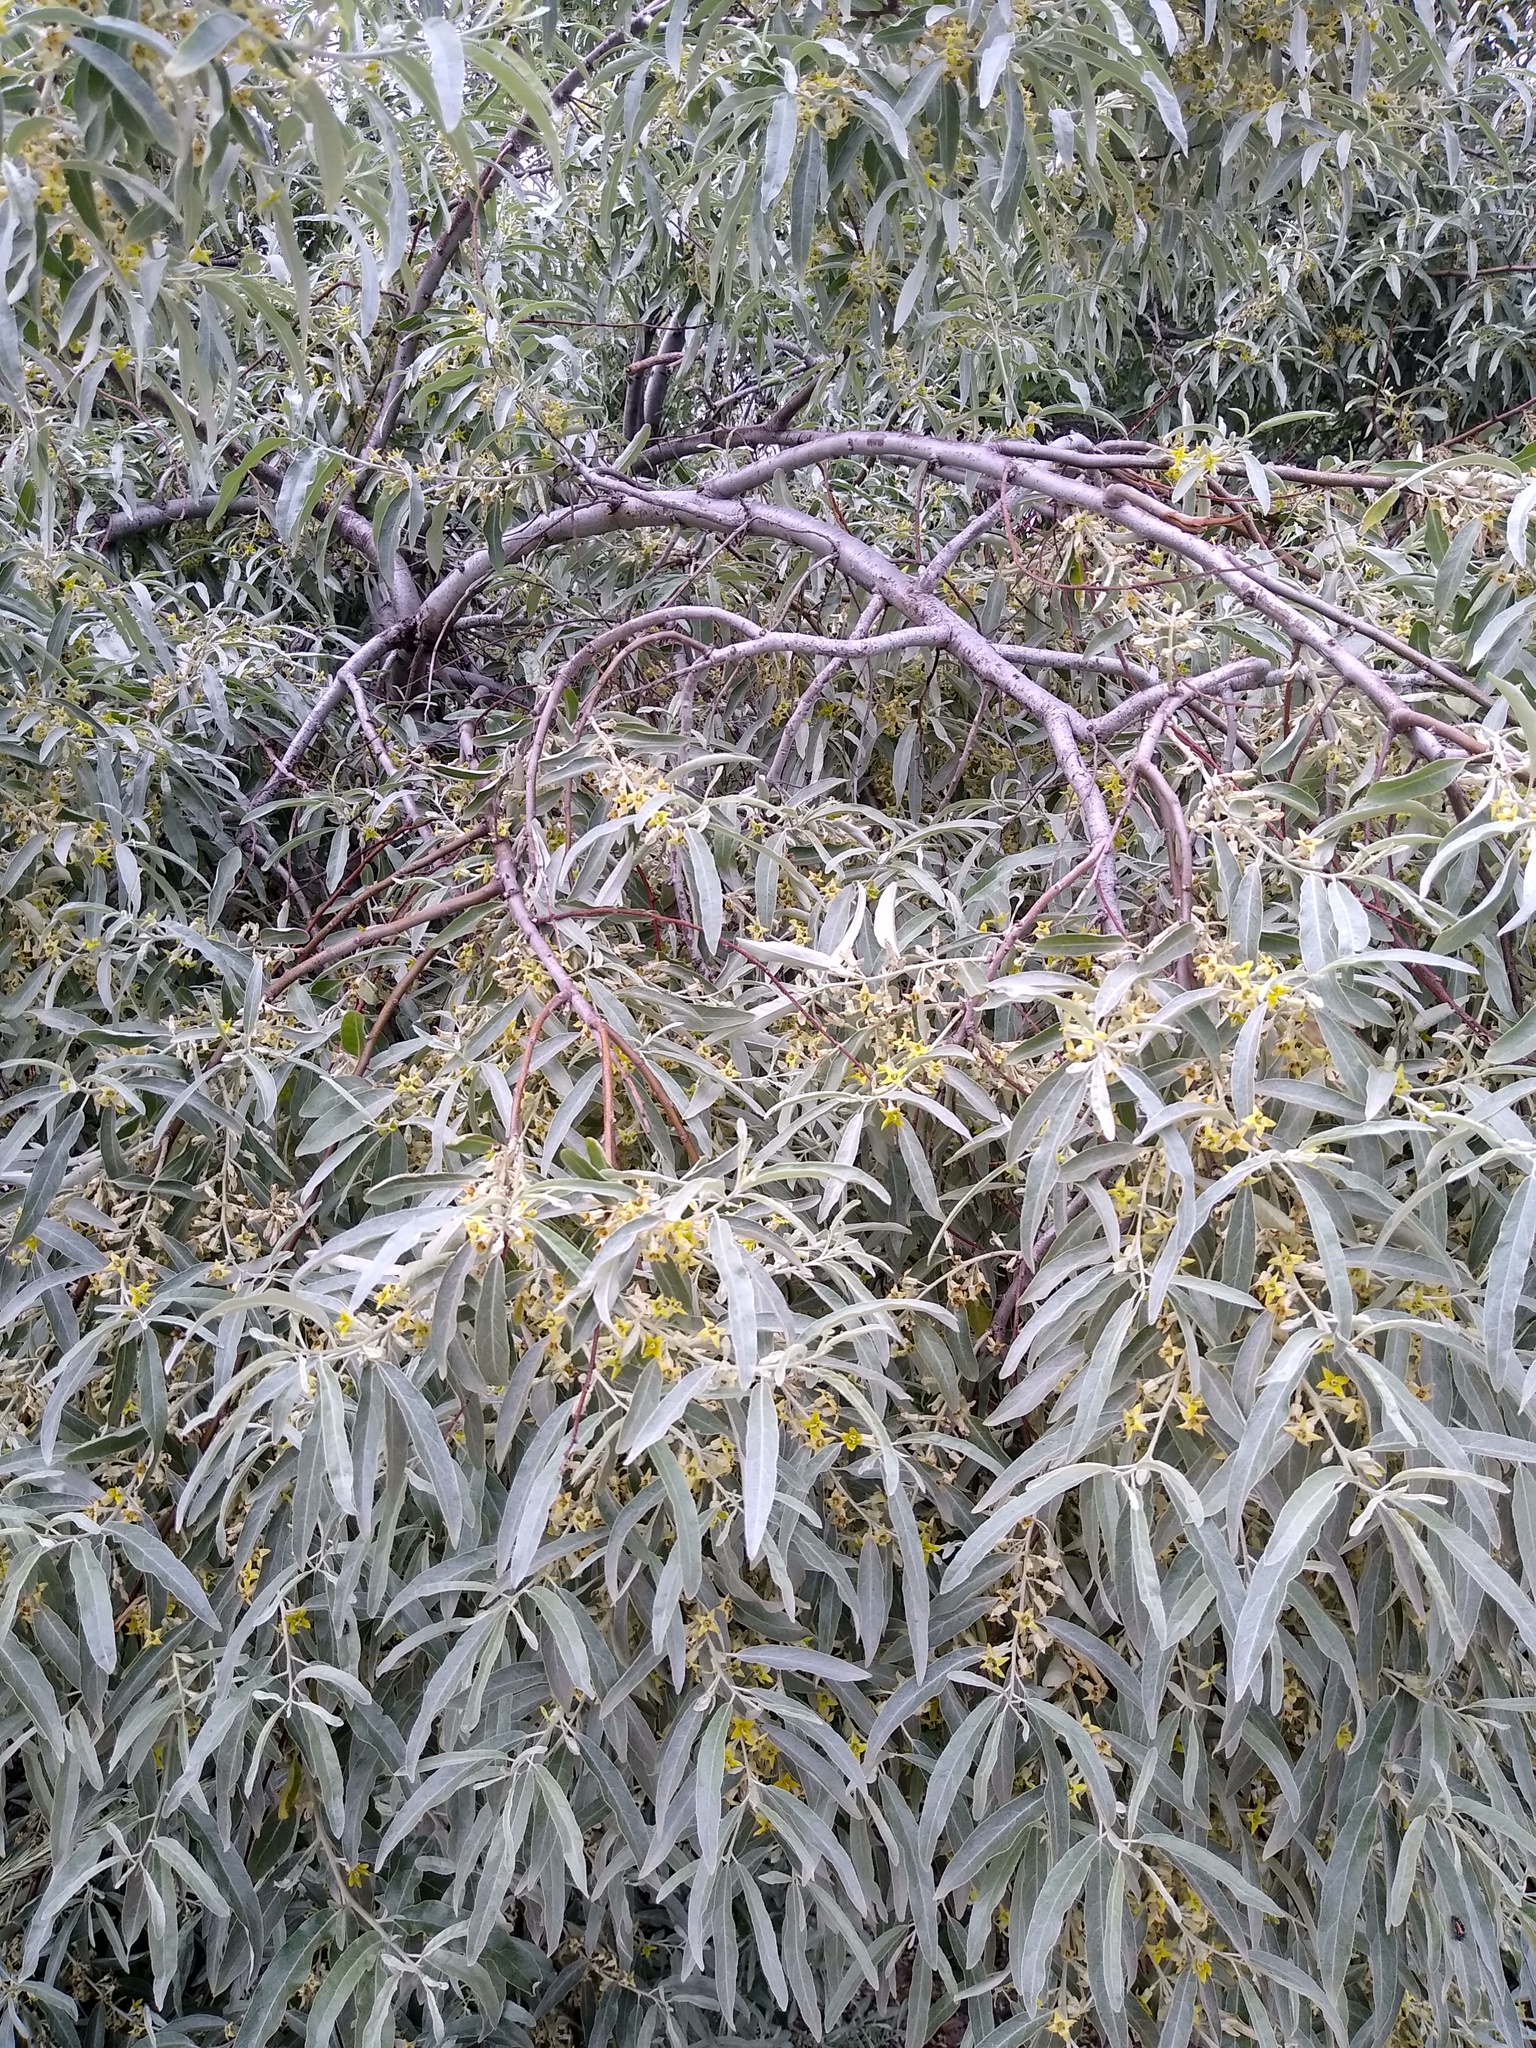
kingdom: Plantae
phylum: Tracheophyta
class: Magnoliopsida
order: Rosales
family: Elaeagnaceae
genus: Elaeagnus
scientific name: Elaeagnus angustifolia
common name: Russian olive
